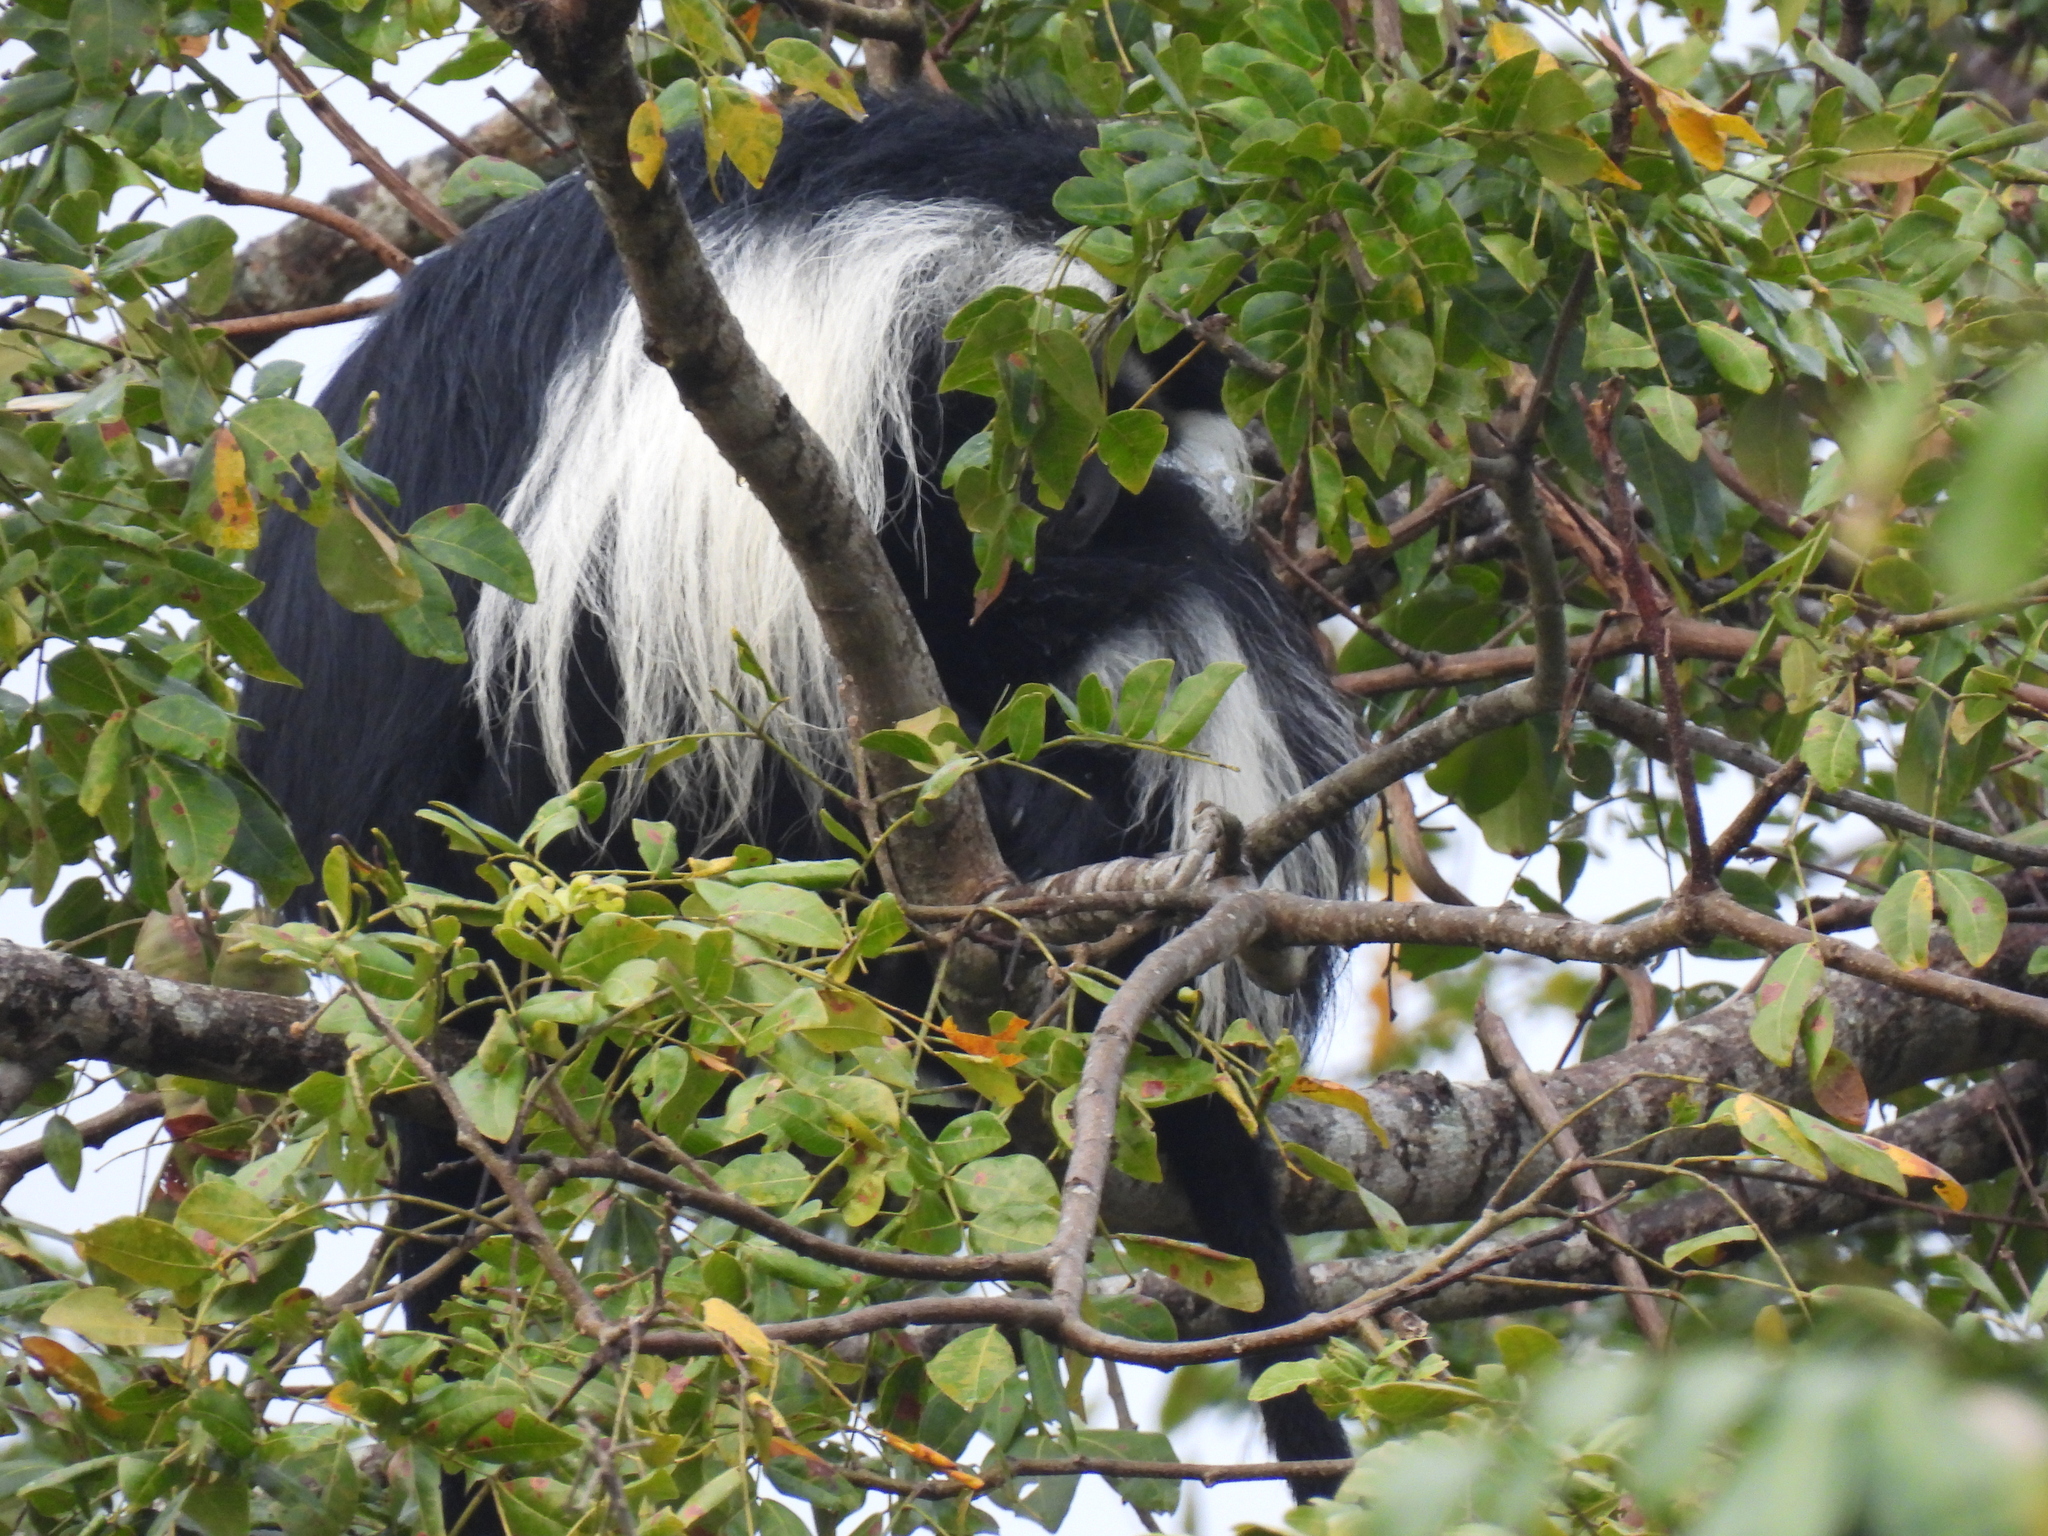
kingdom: Animalia
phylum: Chordata
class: Mammalia
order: Primates
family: Cercopithecidae
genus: Colobus
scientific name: Colobus angolensis
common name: Angola colobus
